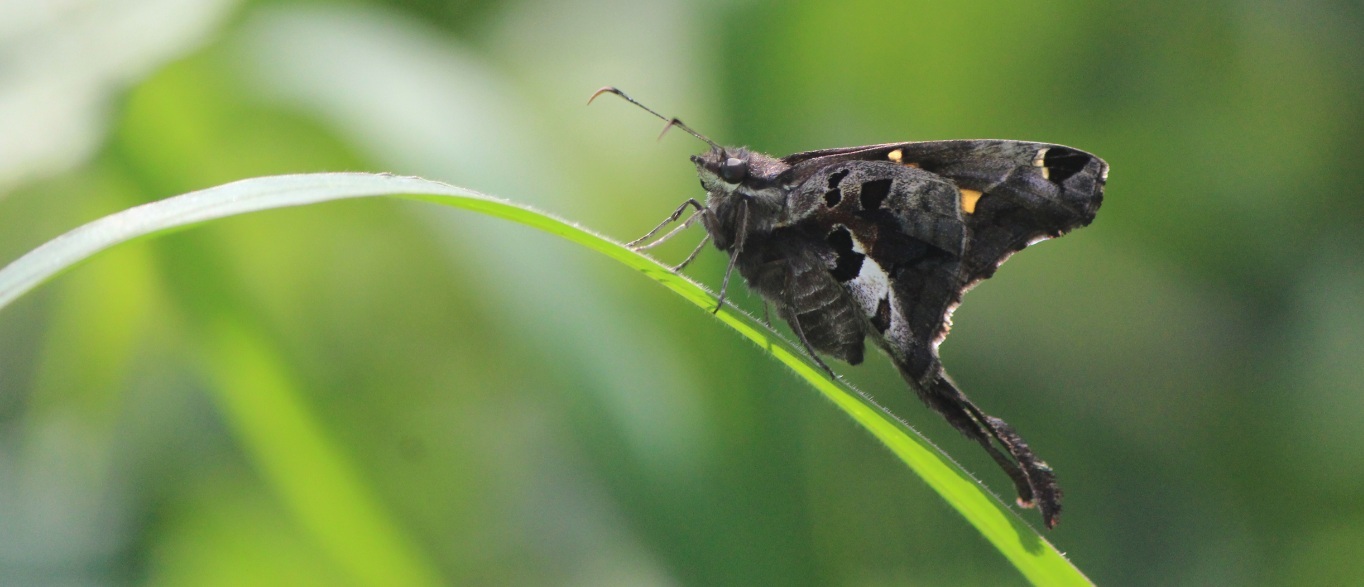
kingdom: Animalia
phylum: Arthropoda
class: Insecta
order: Lepidoptera
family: Hesperiidae
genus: Chioides
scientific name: Chioides zilpa
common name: Zilpa longtail
